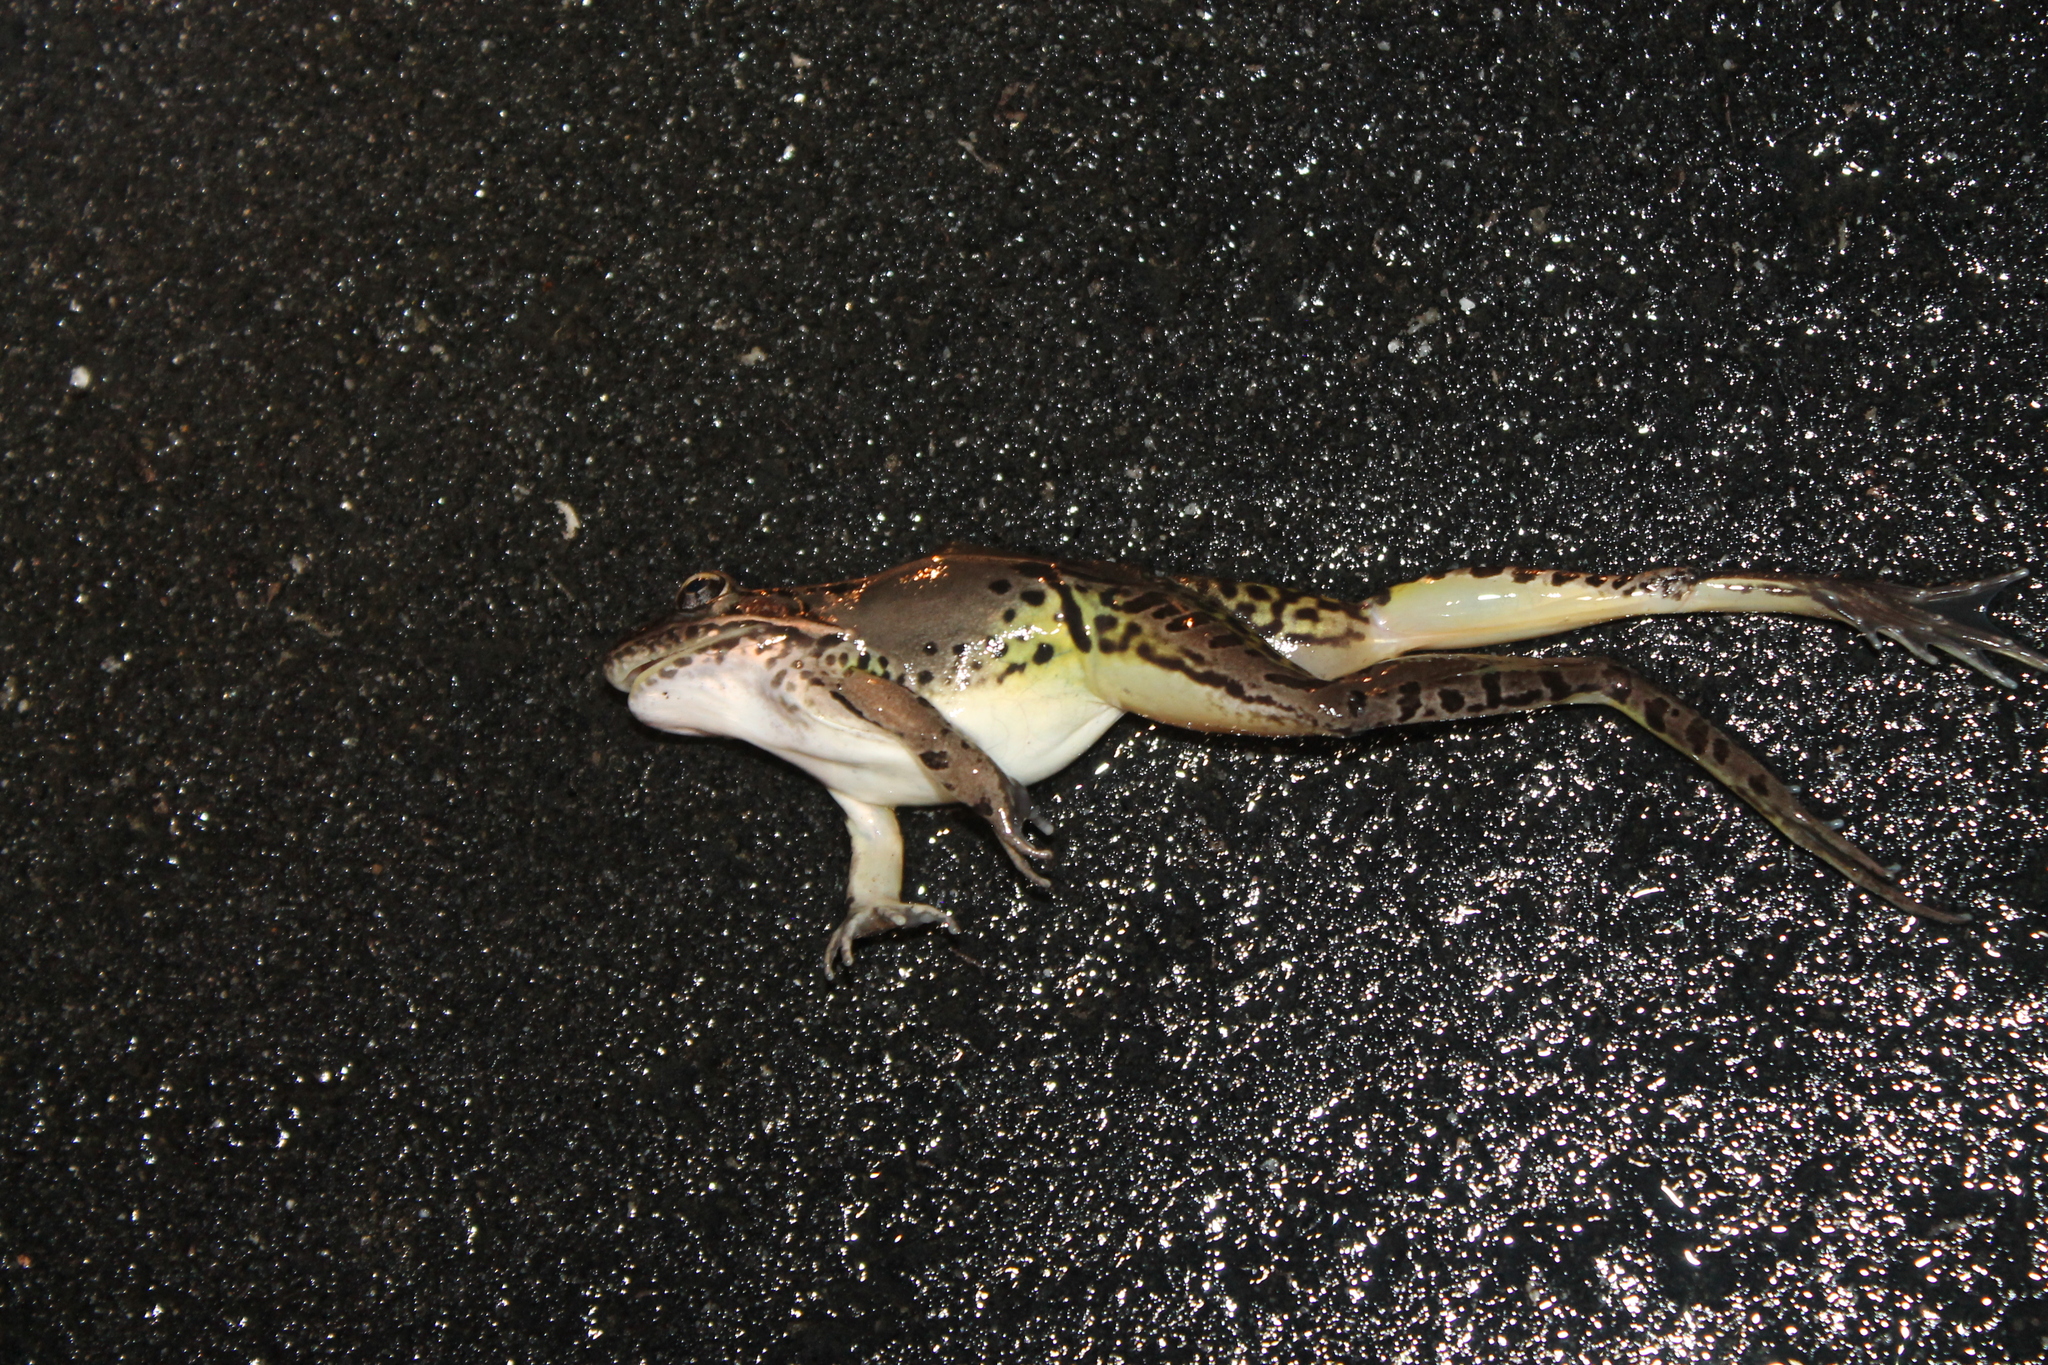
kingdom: Animalia
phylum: Chordata
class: Amphibia
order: Anura
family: Ranidae
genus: Lithobates
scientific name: Lithobates sphenocephalus
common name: Southern leopard frog
